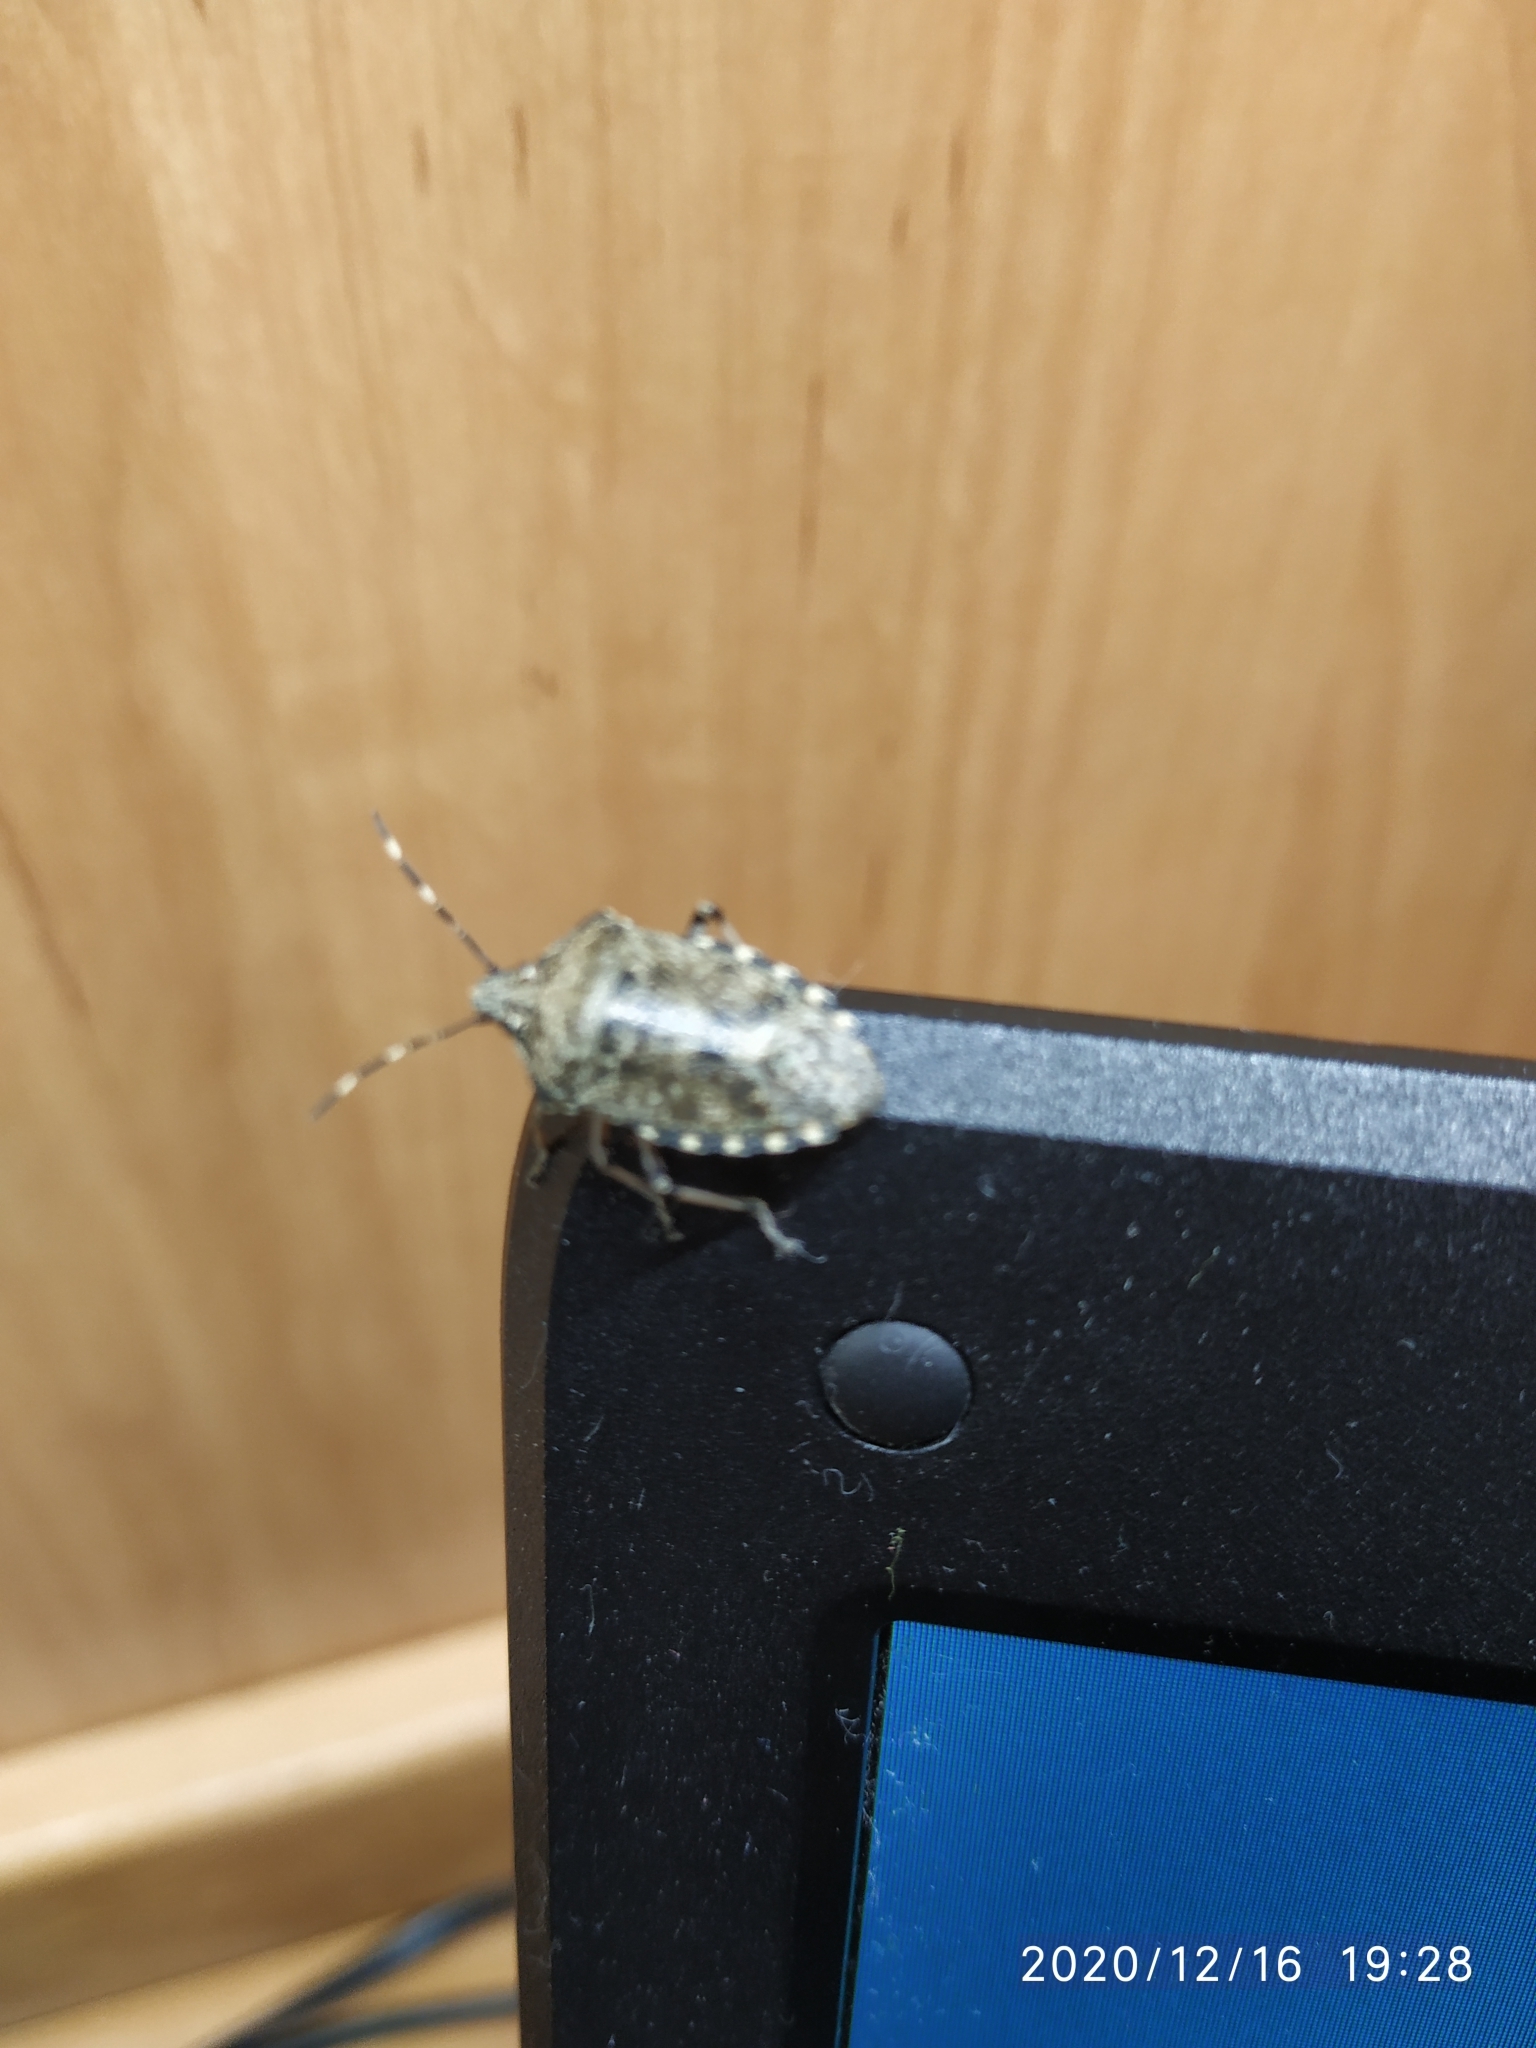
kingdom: Animalia
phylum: Arthropoda
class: Insecta
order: Hemiptera
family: Pentatomidae
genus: Rhaphigaster
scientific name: Rhaphigaster nebulosa
